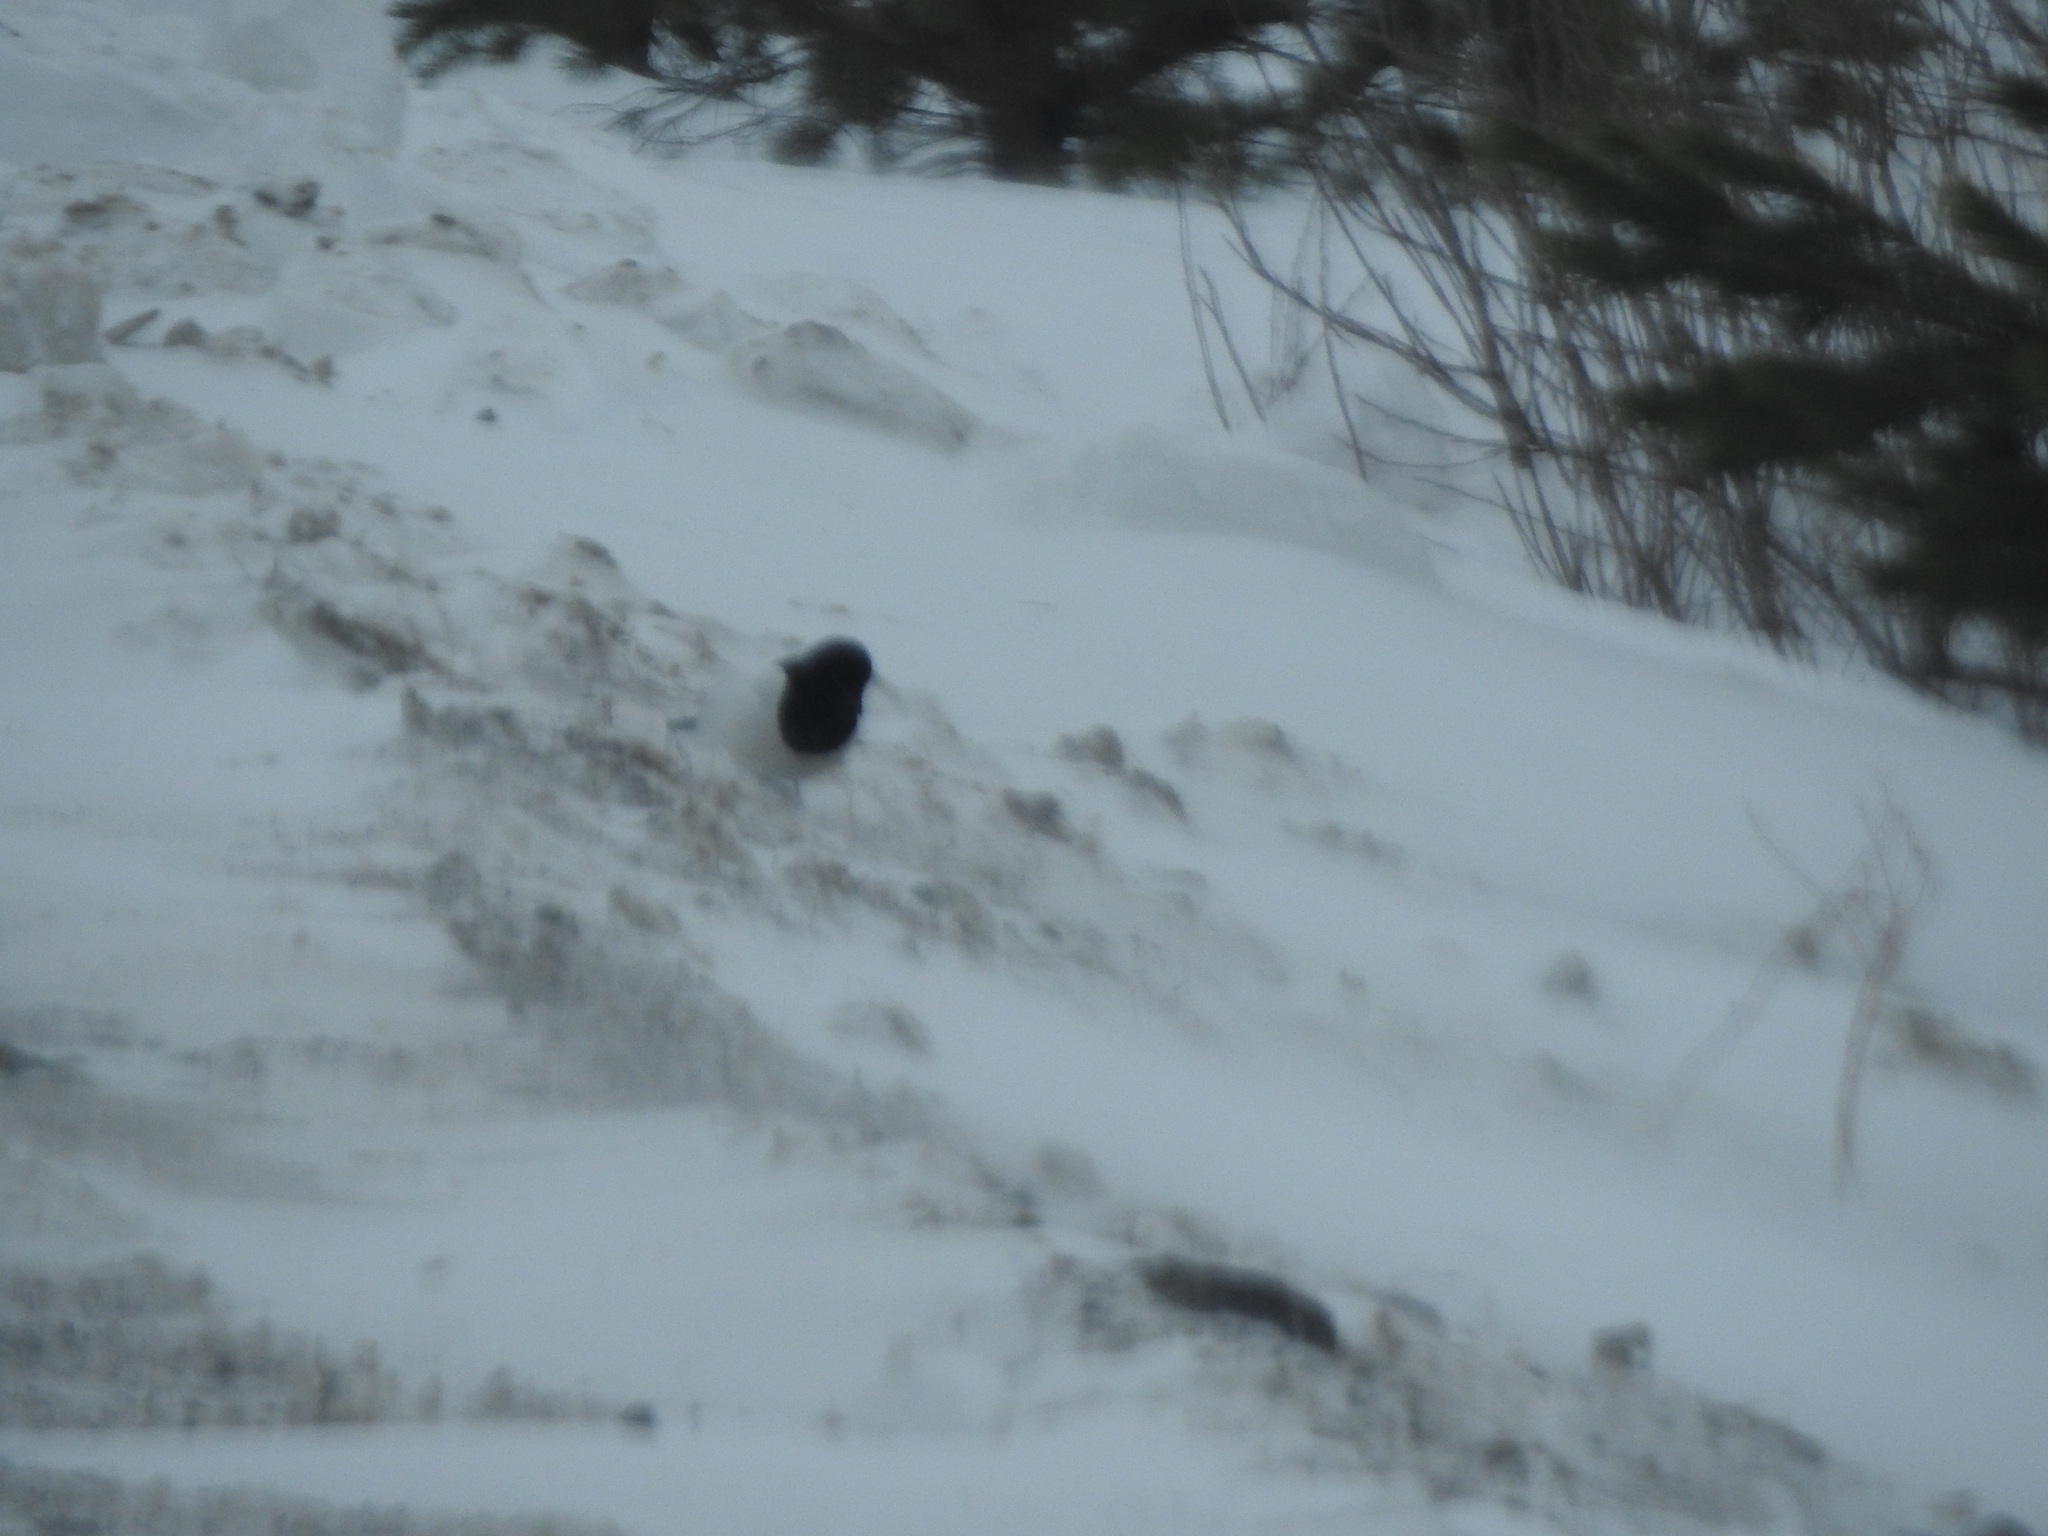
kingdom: Animalia
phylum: Chordata
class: Aves
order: Passeriformes
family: Corvidae
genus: Pica
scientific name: Pica pica
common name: Eurasian magpie
